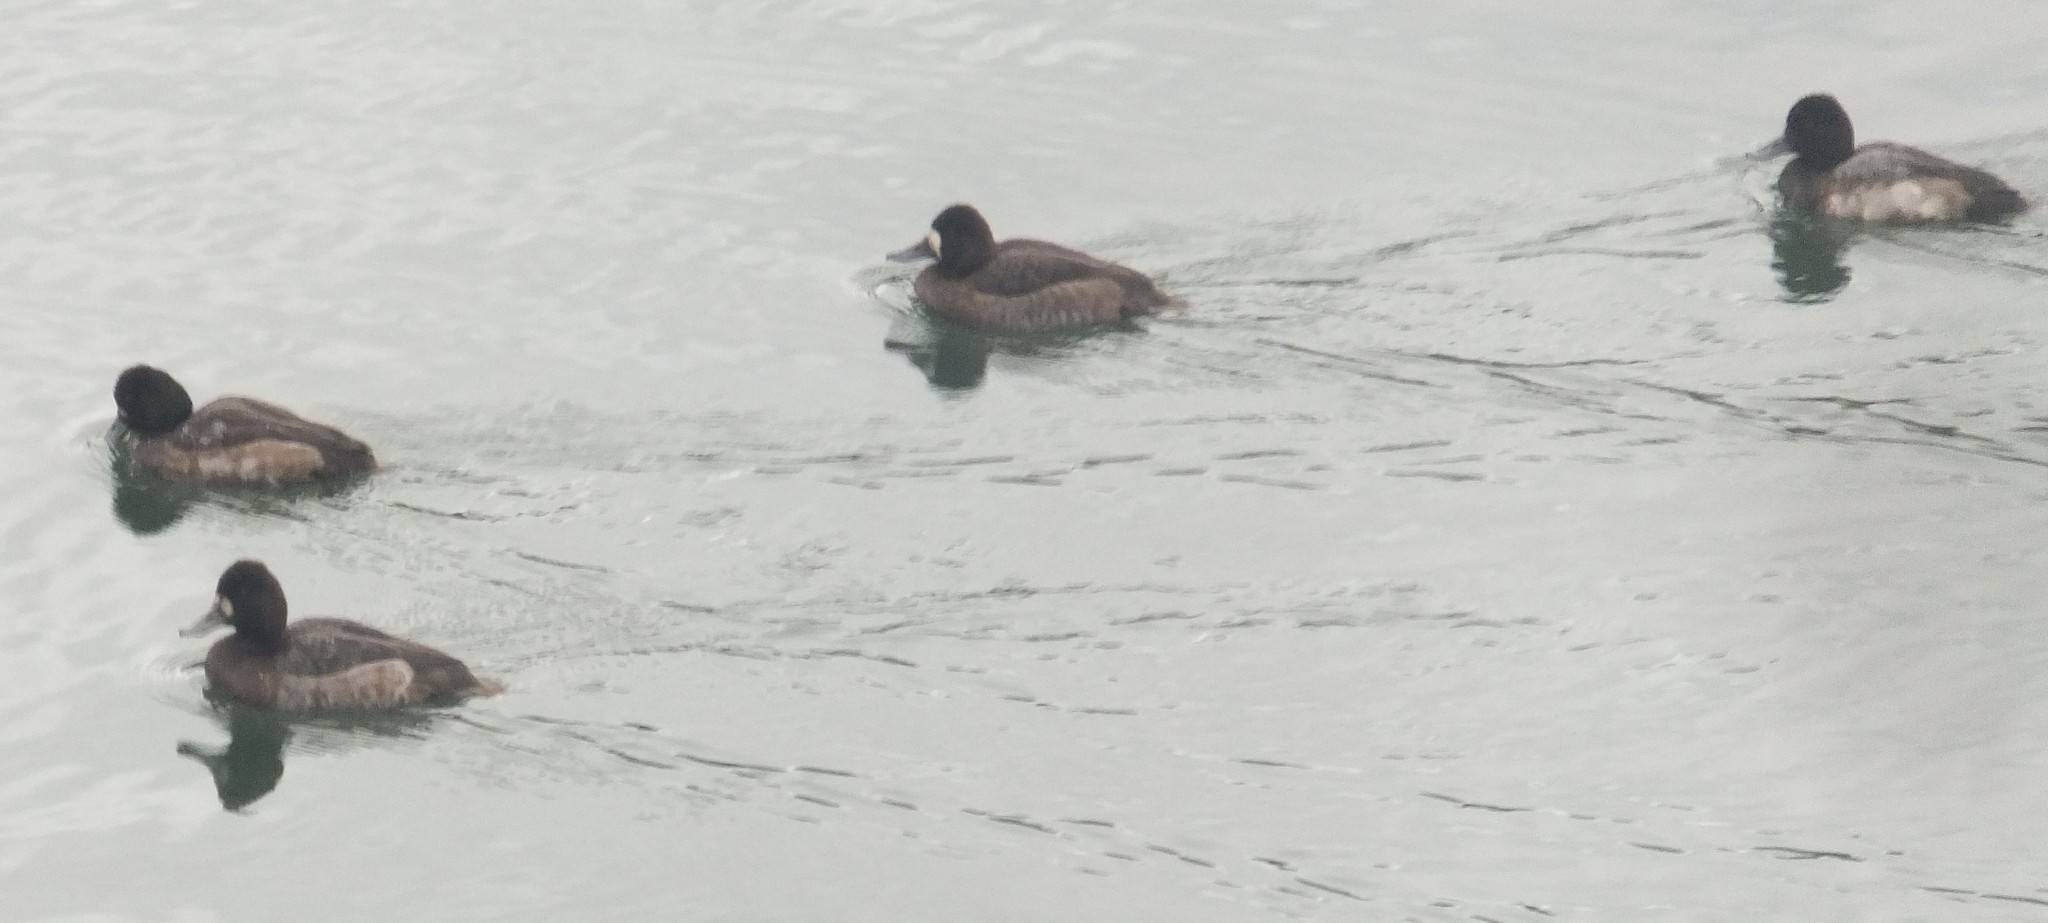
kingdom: Animalia
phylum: Chordata
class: Aves
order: Anseriformes
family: Anatidae
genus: Aythya
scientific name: Aythya affinis
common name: Lesser scaup
